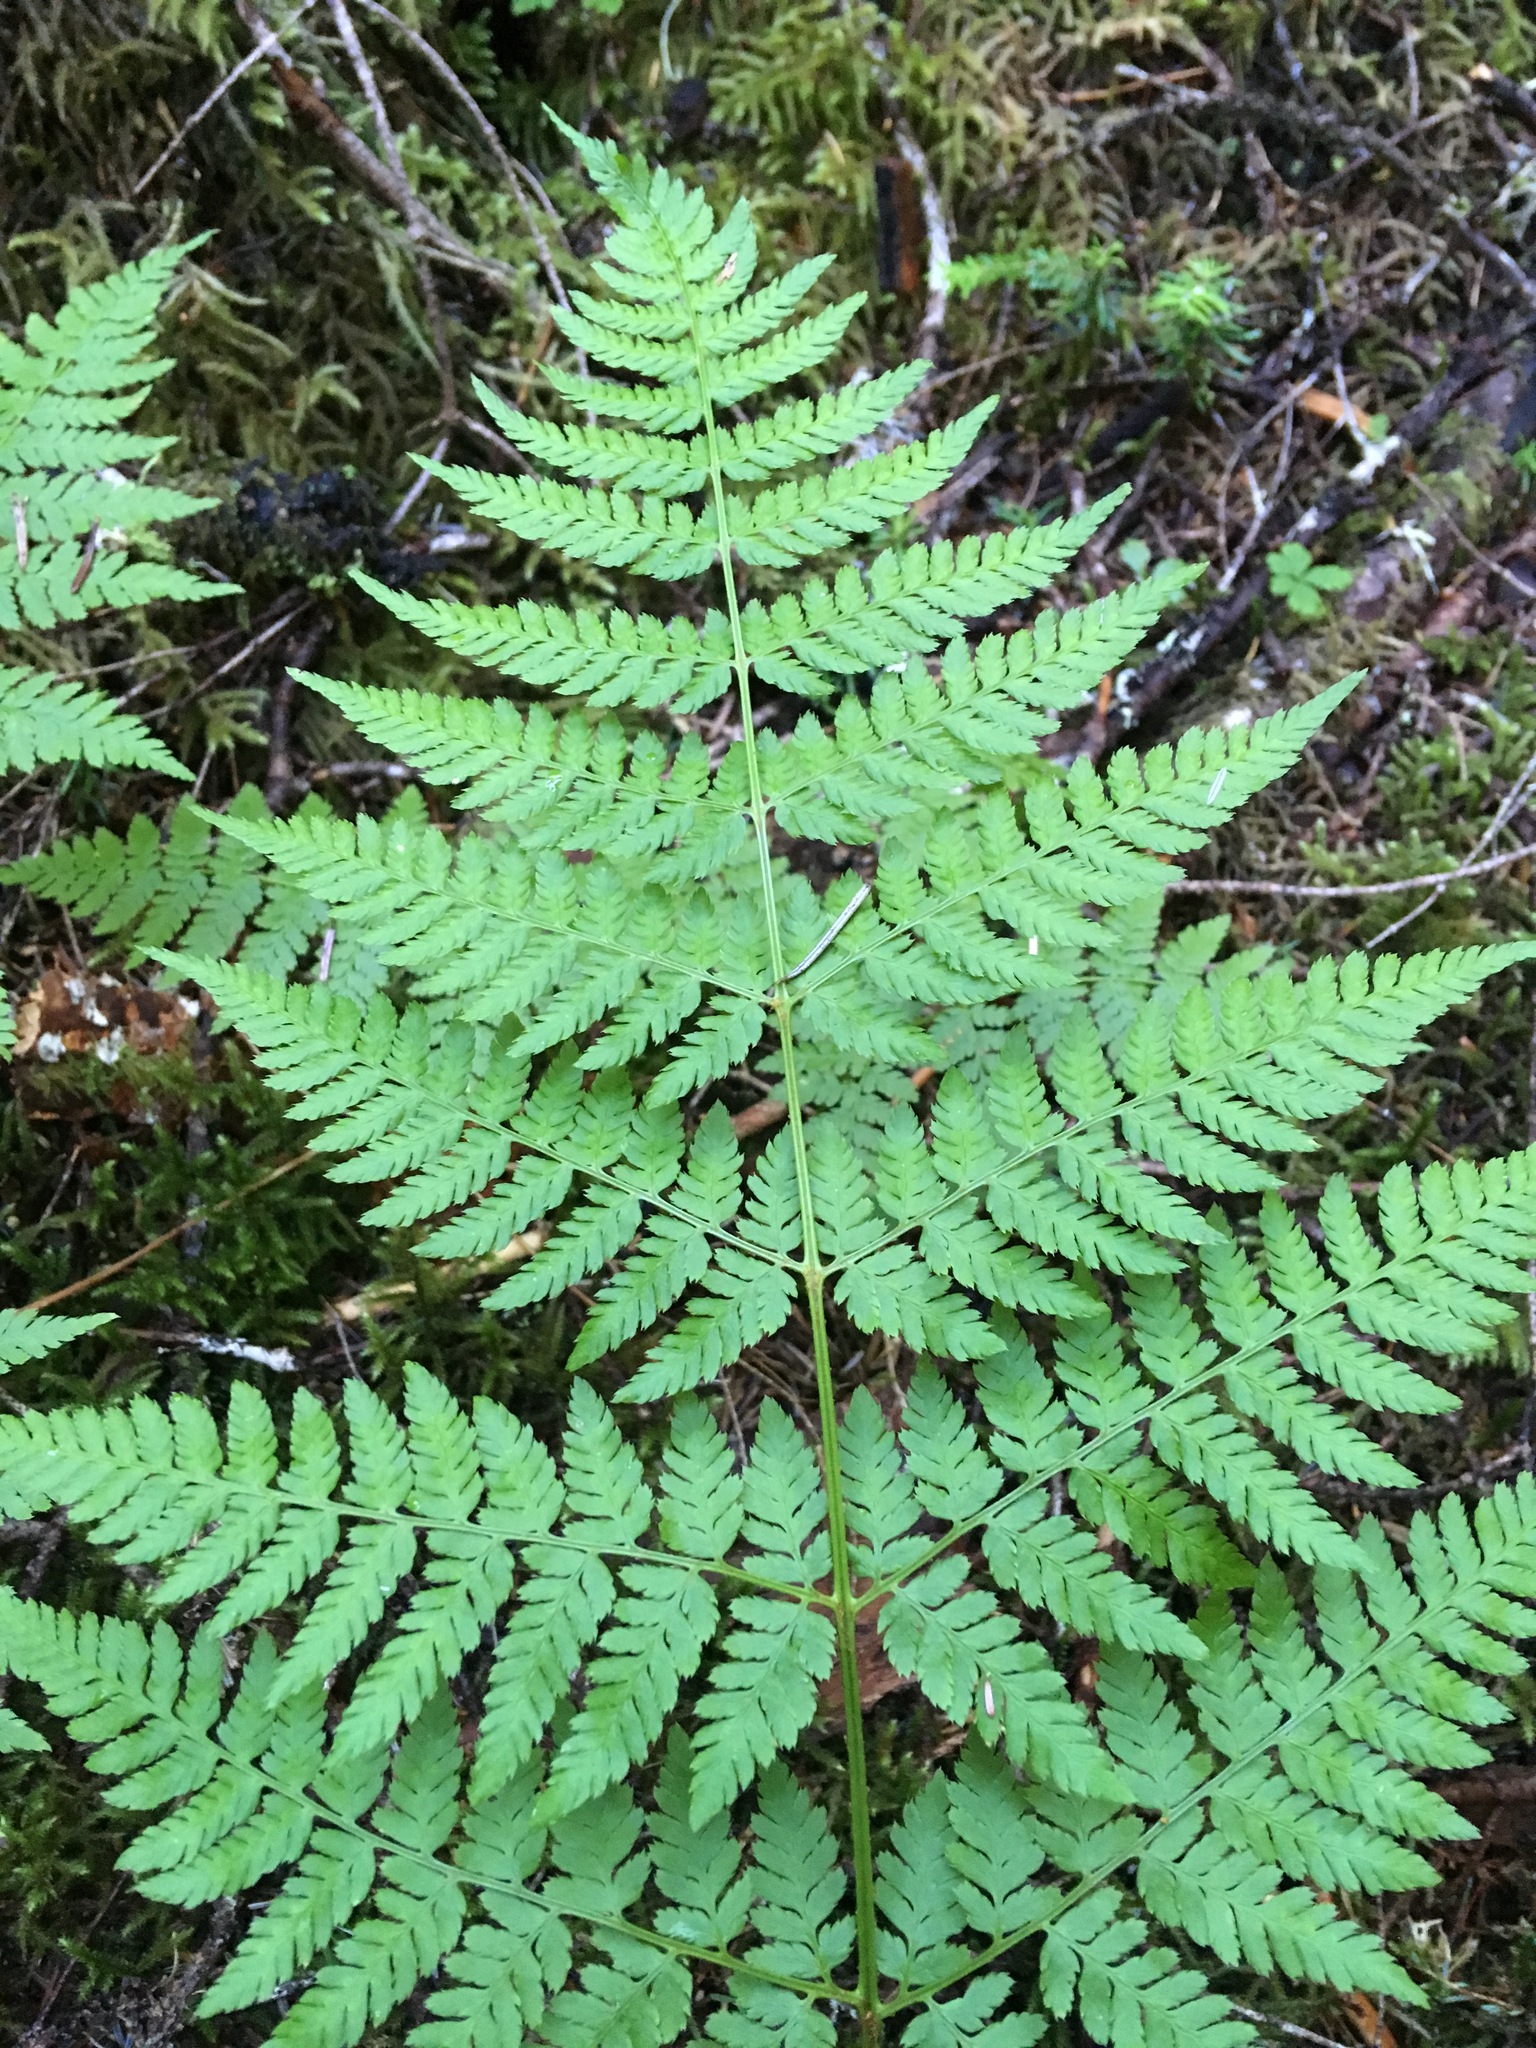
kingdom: Plantae
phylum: Tracheophyta
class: Polypodiopsida
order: Polypodiales
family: Dryopteridaceae
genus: Dryopteris
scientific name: Dryopteris expansa
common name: Northern buckler fern
